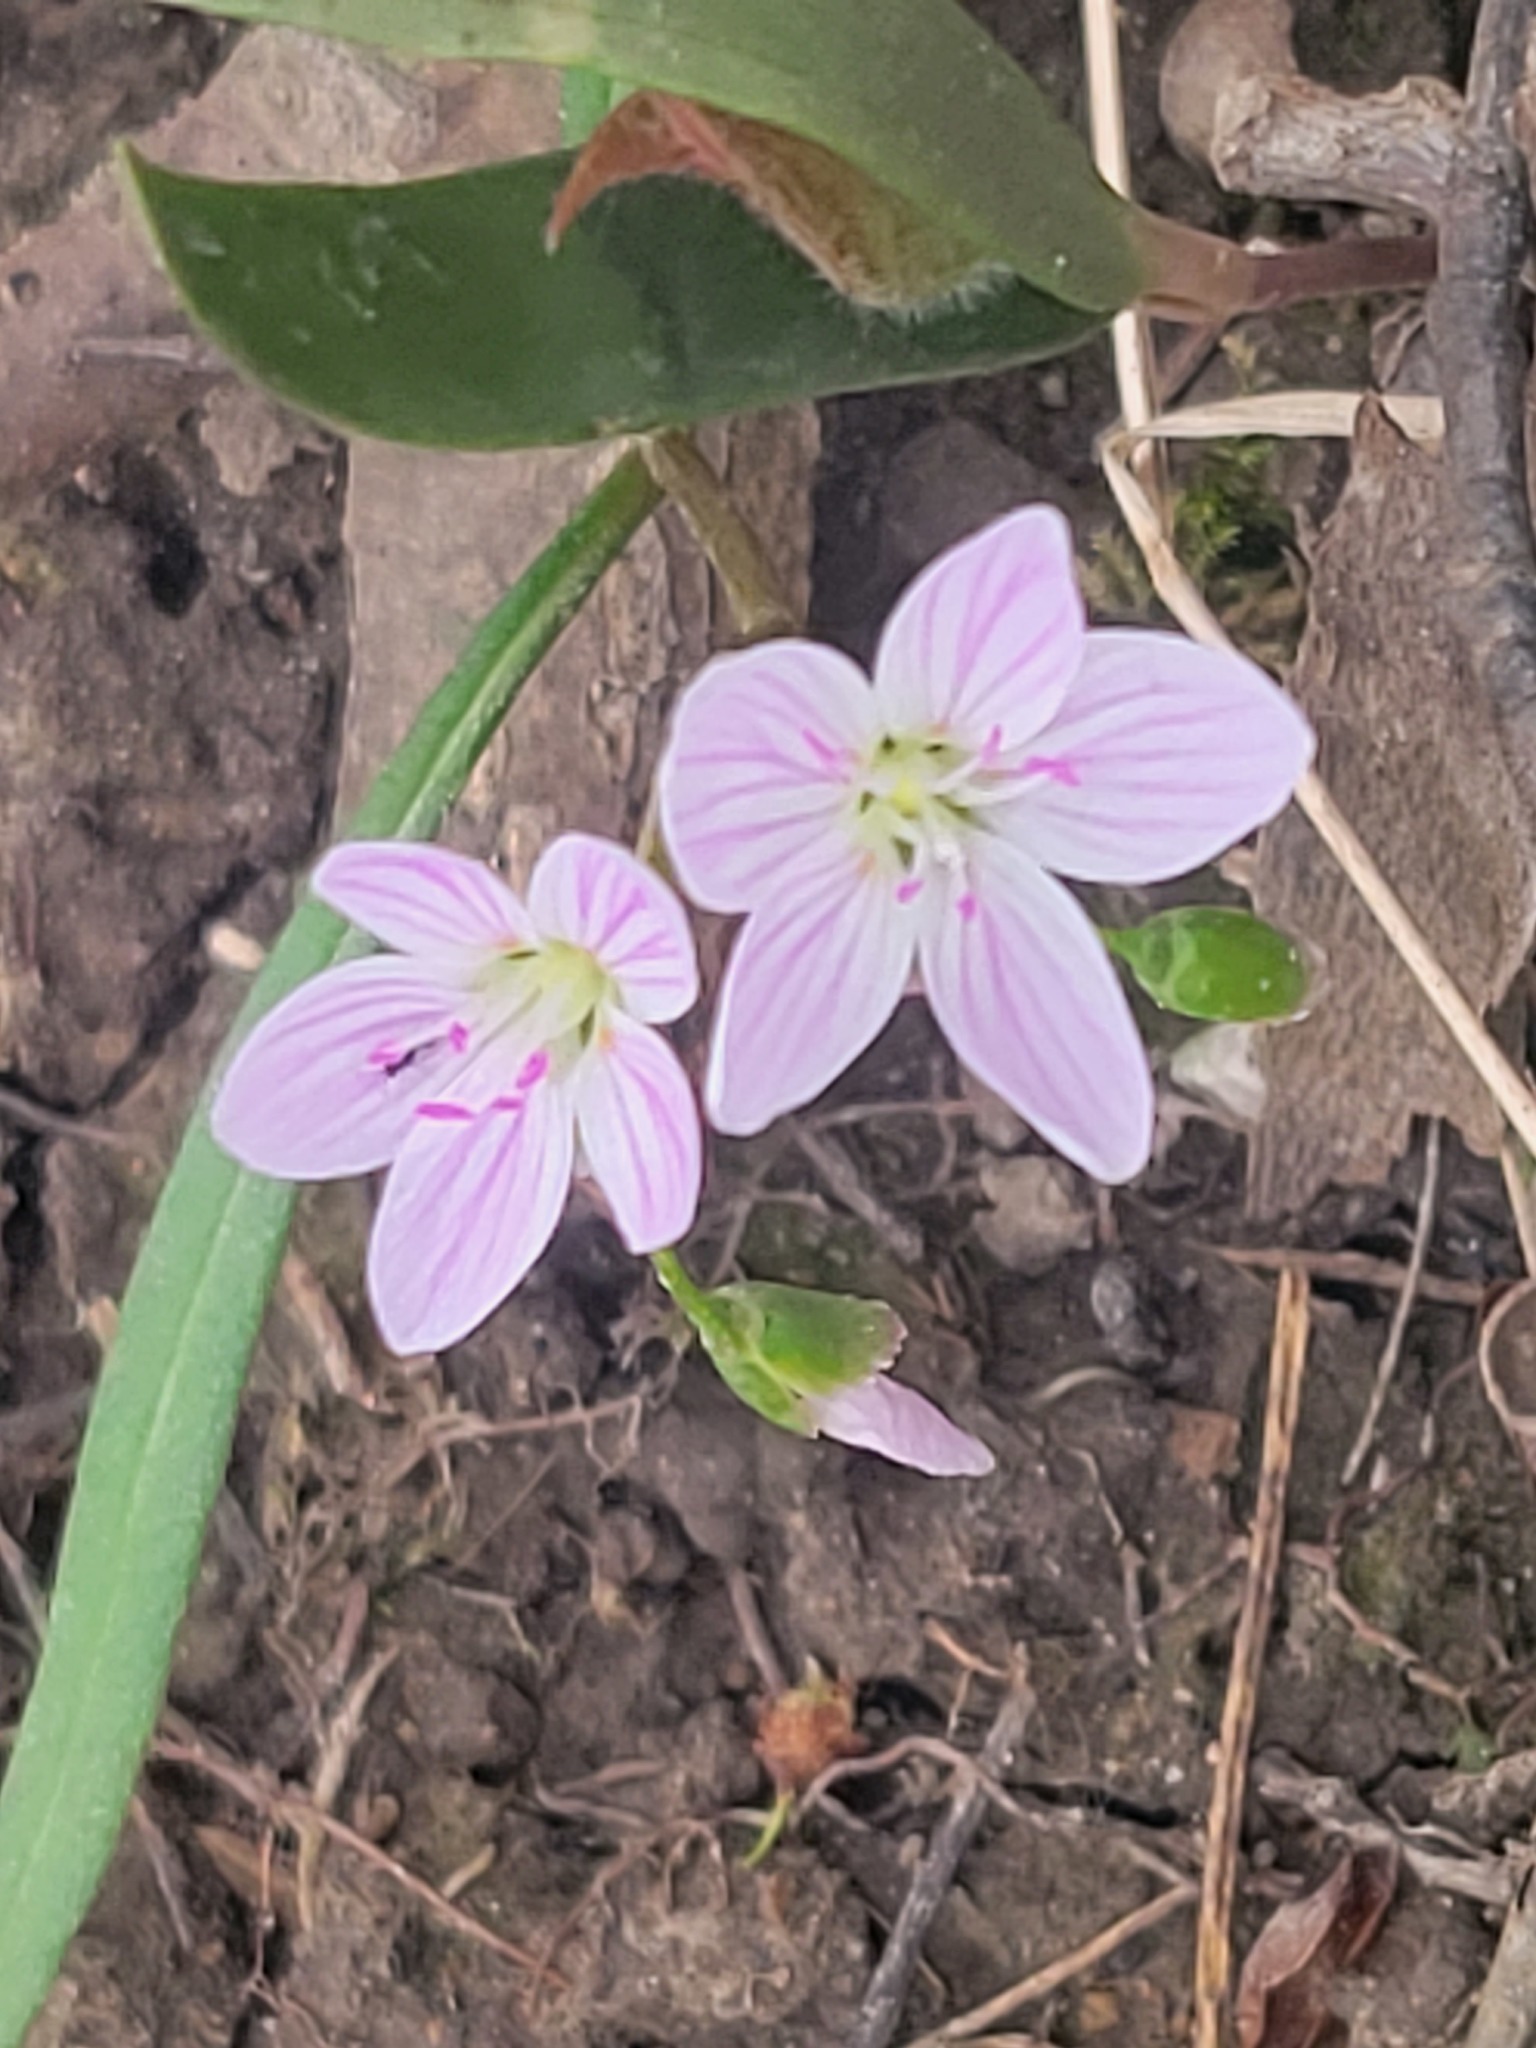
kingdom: Plantae
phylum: Tracheophyta
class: Magnoliopsida
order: Caryophyllales
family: Montiaceae
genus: Claytonia
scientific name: Claytonia virginica
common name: Virginia springbeauty
